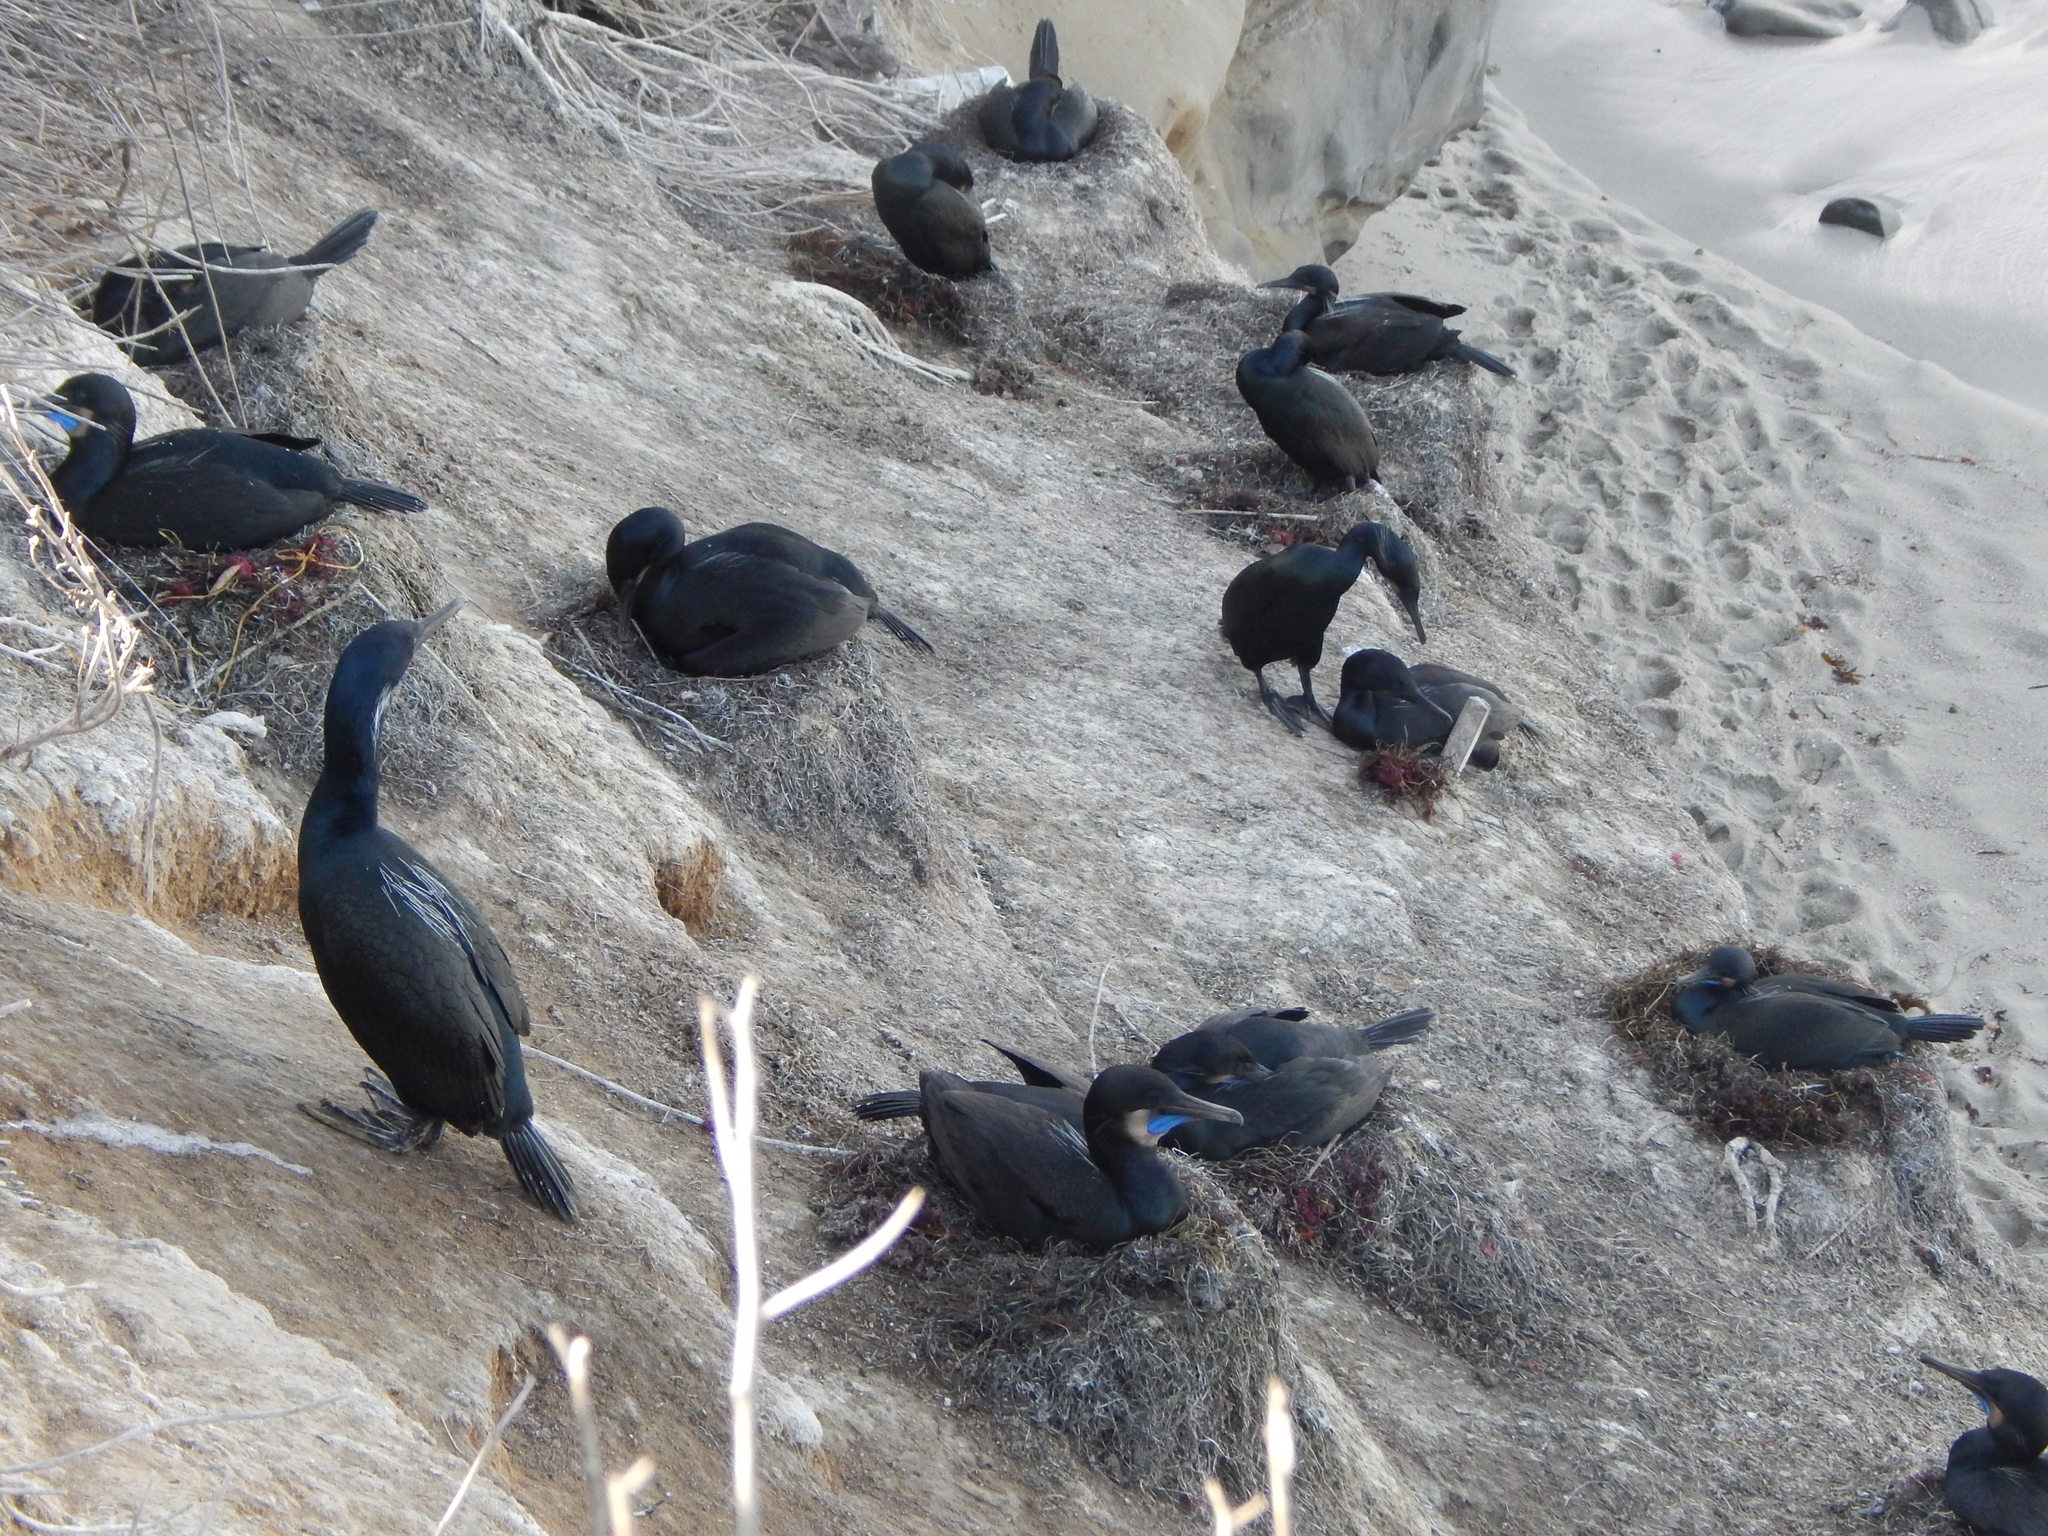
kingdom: Animalia
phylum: Chordata
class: Aves
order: Suliformes
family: Phalacrocoracidae
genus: Urile
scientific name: Urile penicillatus
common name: Brandt's cormorant
